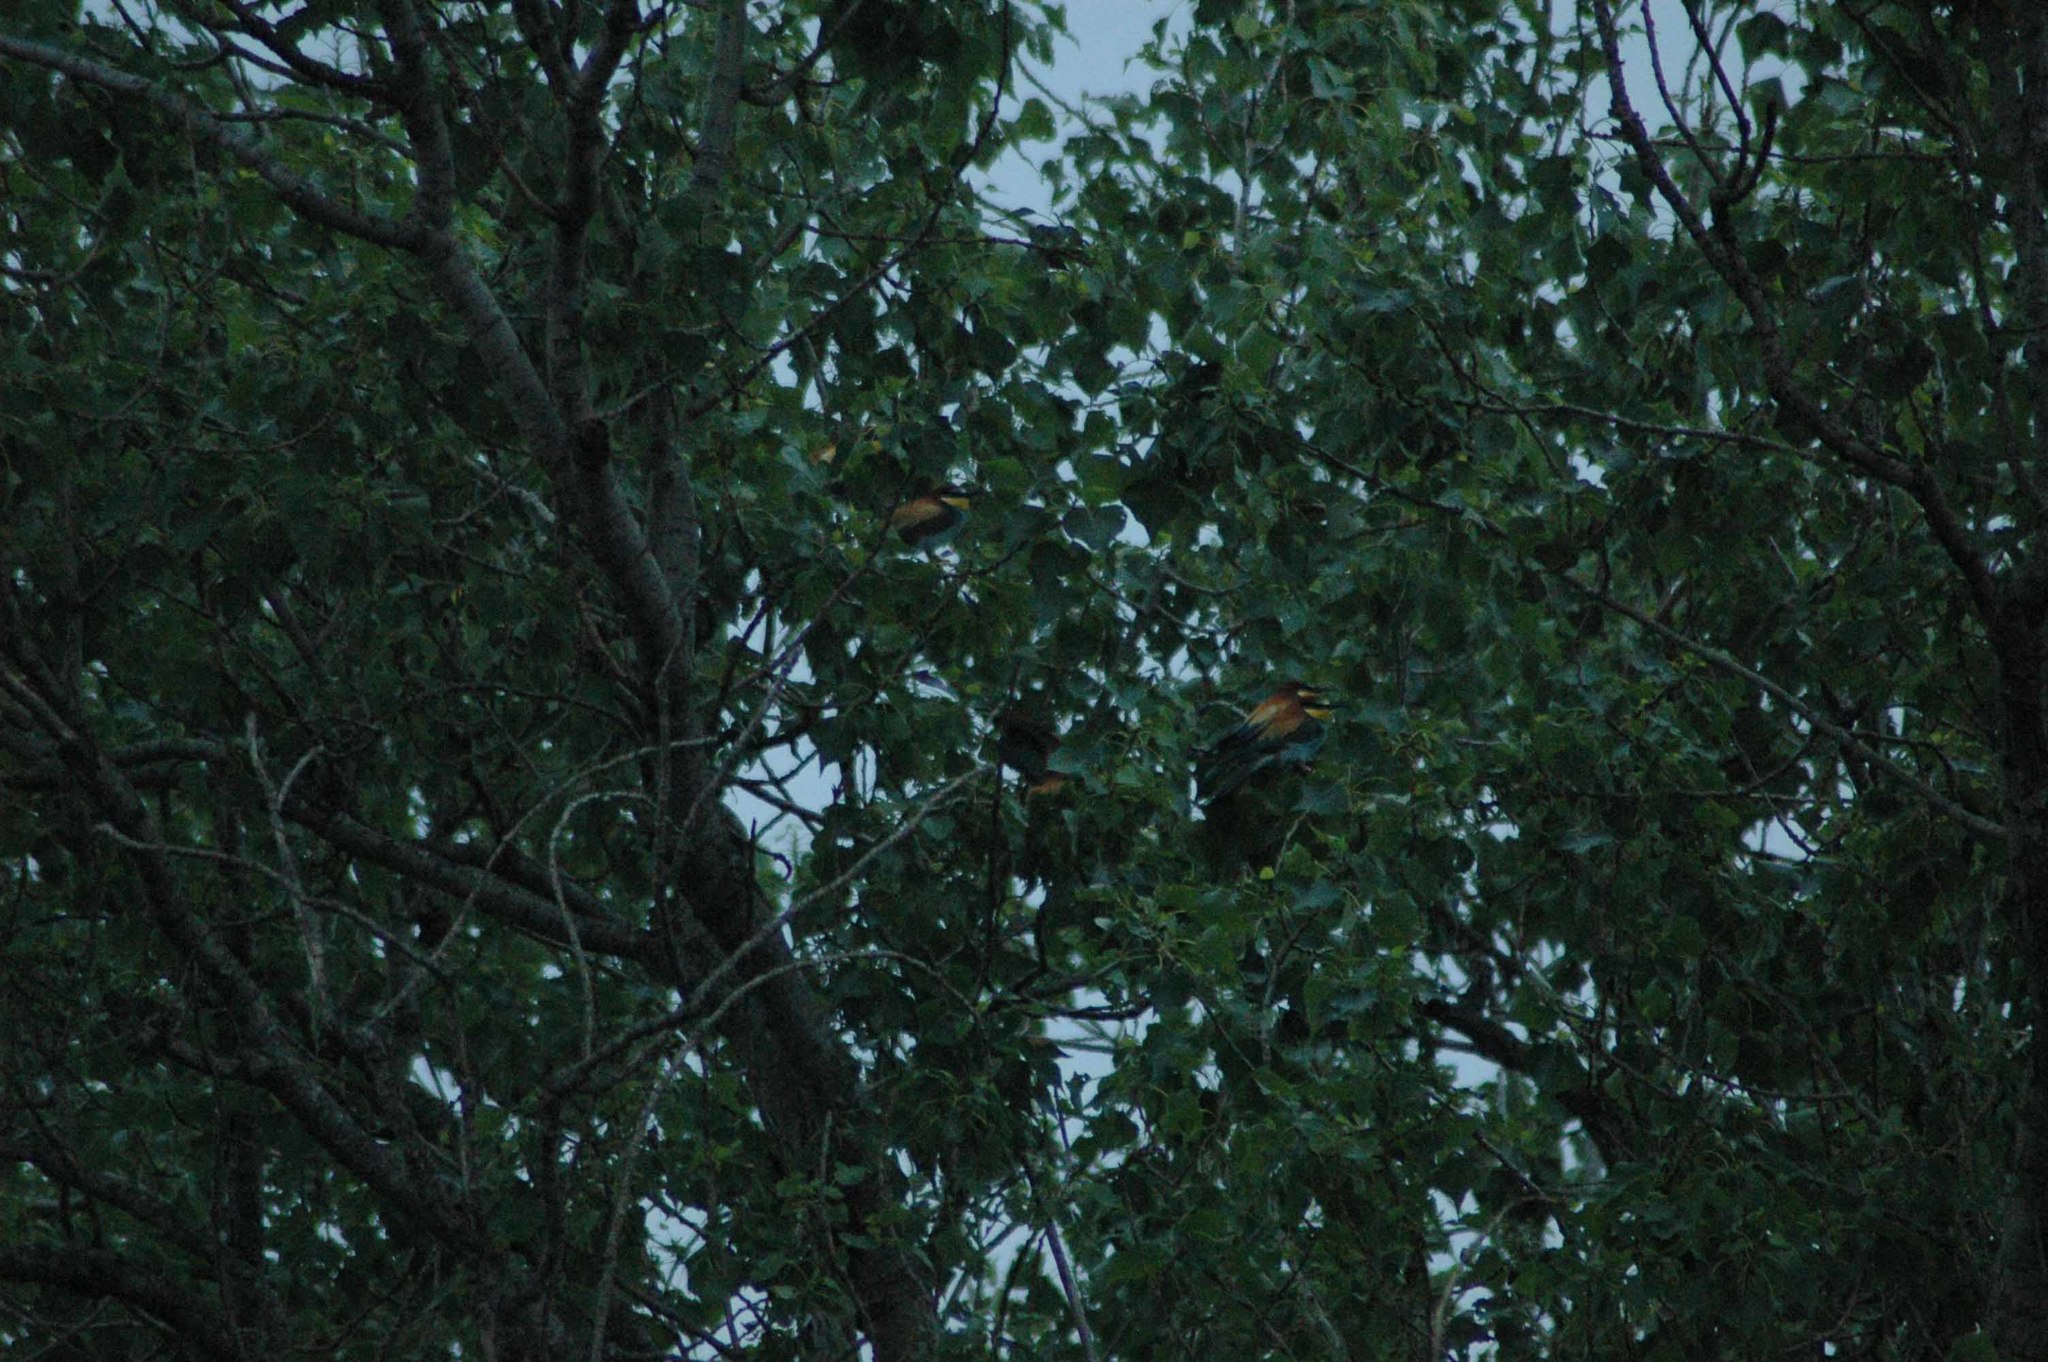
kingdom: Animalia
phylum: Chordata
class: Aves
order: Coraciiformes
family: Meropidae
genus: Merops
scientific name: Merops apiaster
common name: European bee-eater
